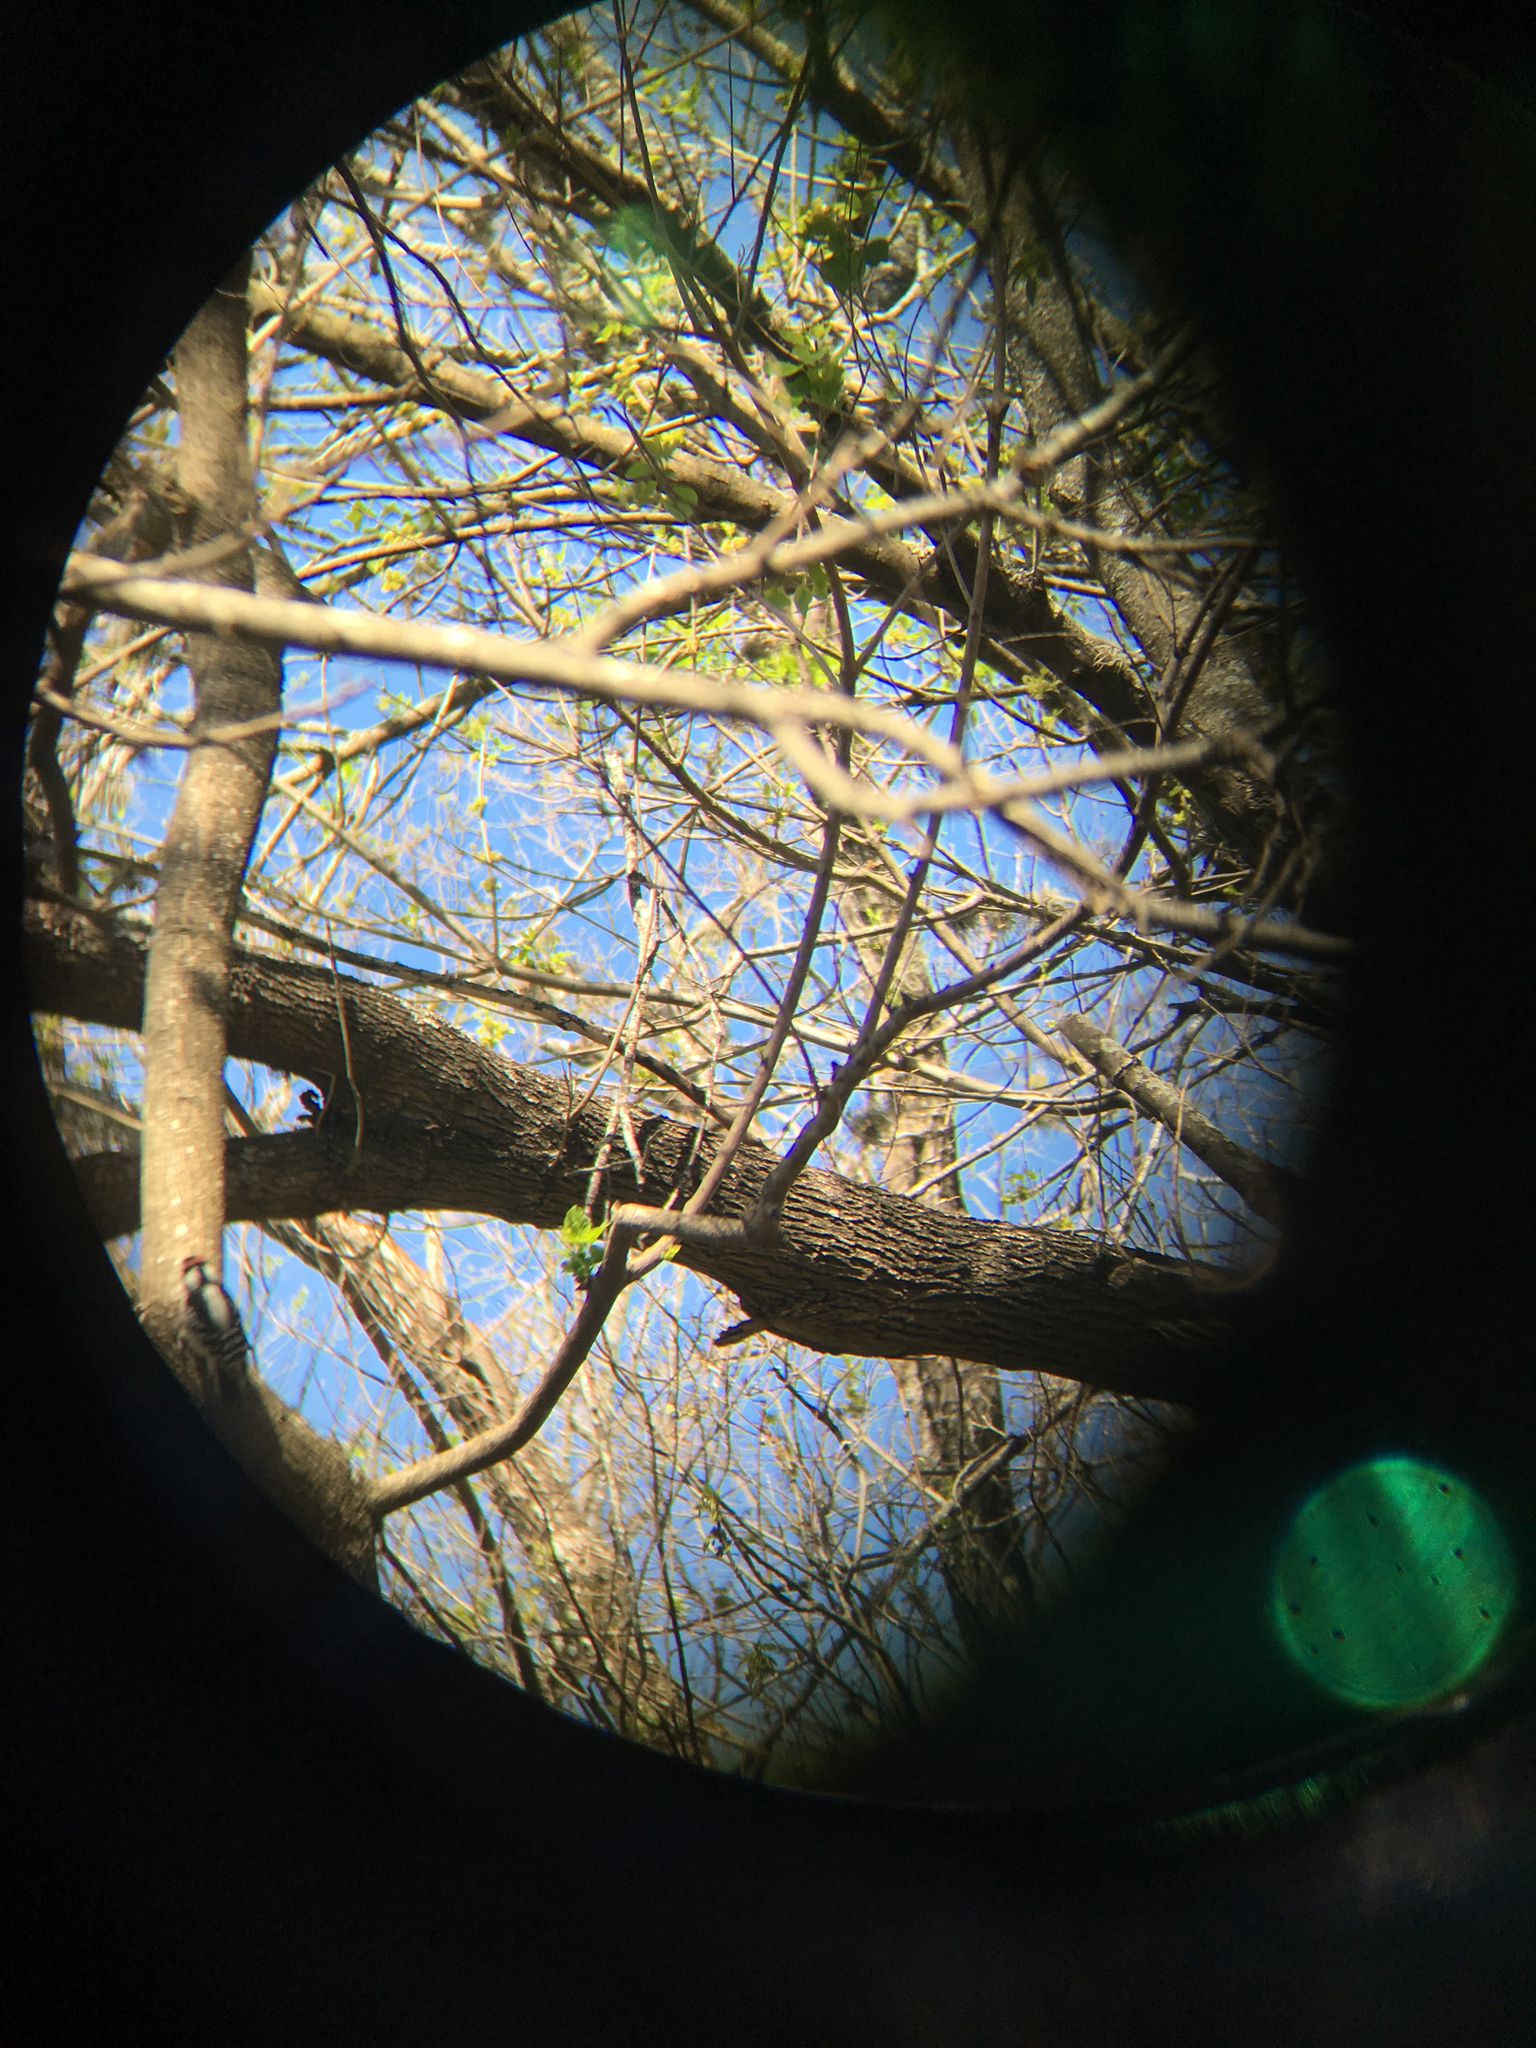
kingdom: Animalia
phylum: Chordata
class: Aves
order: Piciformes
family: Picidae
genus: Dryobates
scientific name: Dryobates pubescens
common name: Downy woodpecker
